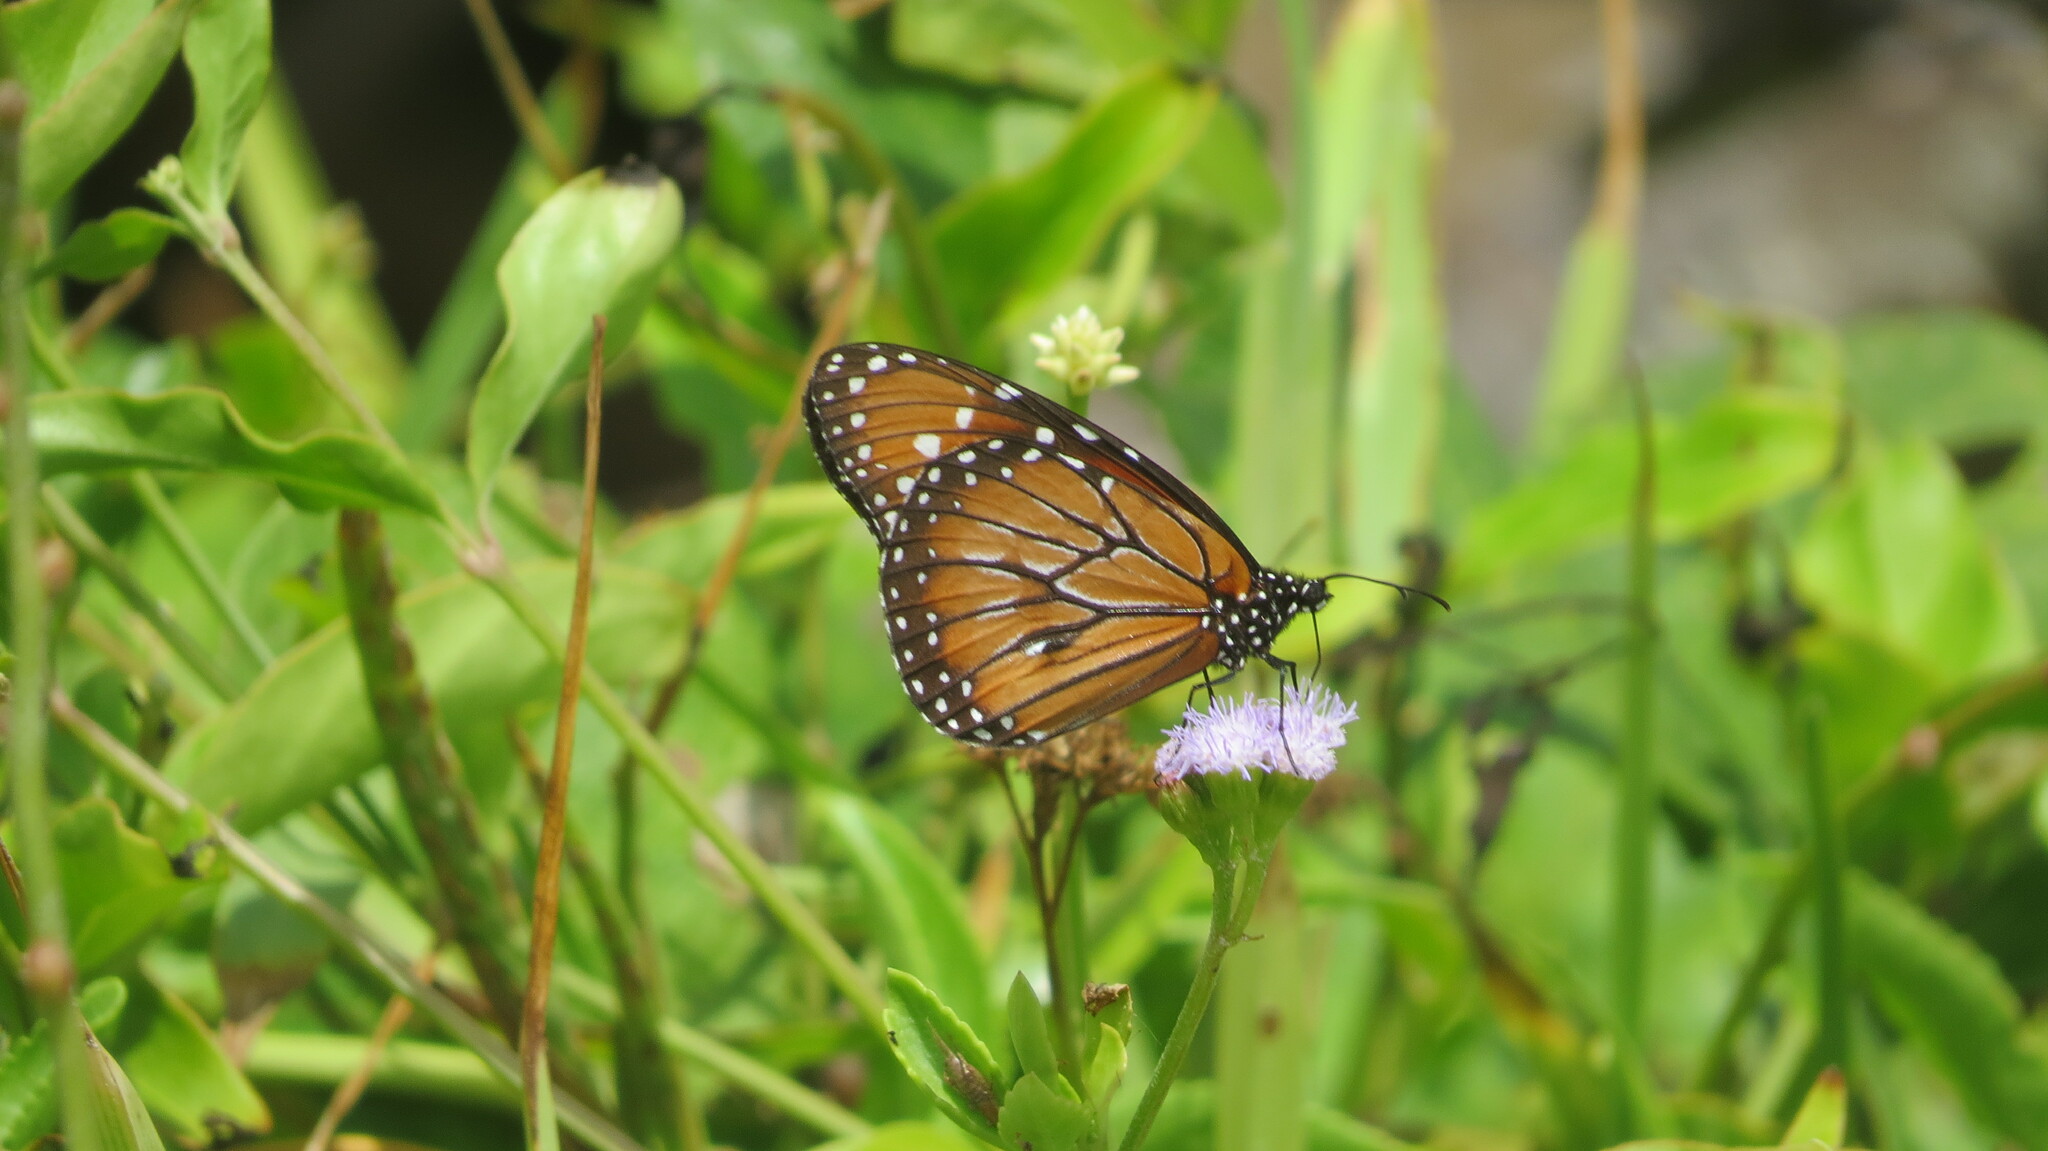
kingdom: Animalia
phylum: Arthropoda
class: Insecta
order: Lepidoptera
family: Nymphalidae
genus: Danaus
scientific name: Danaus eresimus
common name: Soldier
